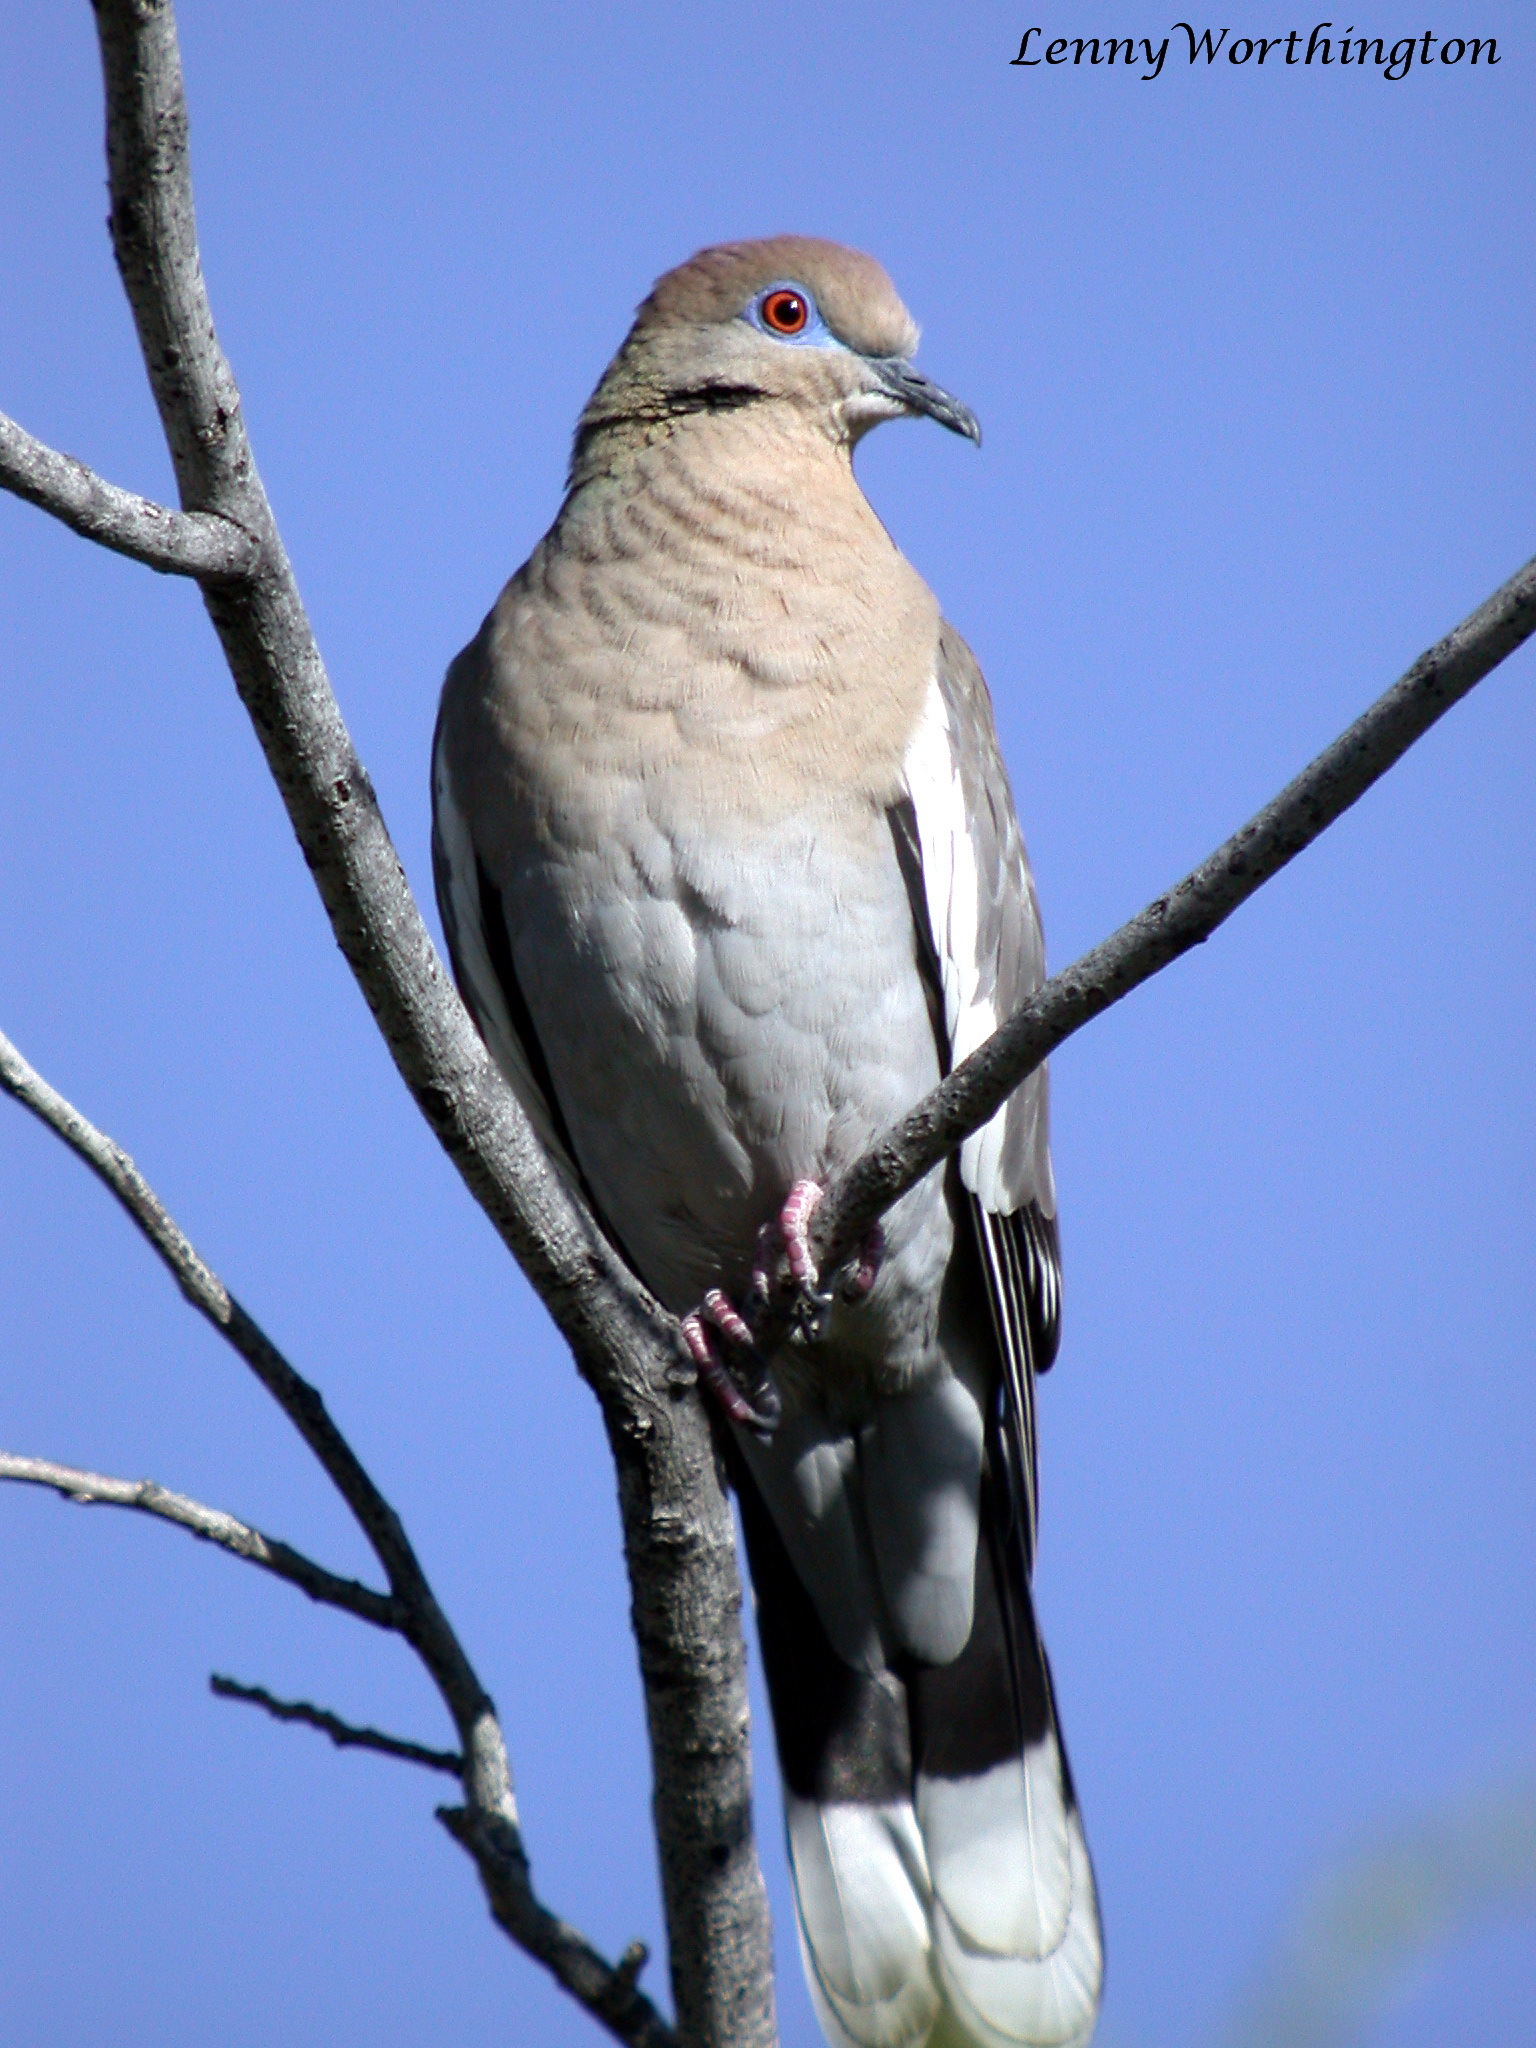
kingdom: Animalia
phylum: Chordata
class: Aves
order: Columbiformes
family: Columbidae
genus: Zenaida
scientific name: Zenaida asiatica
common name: White-winged dove
